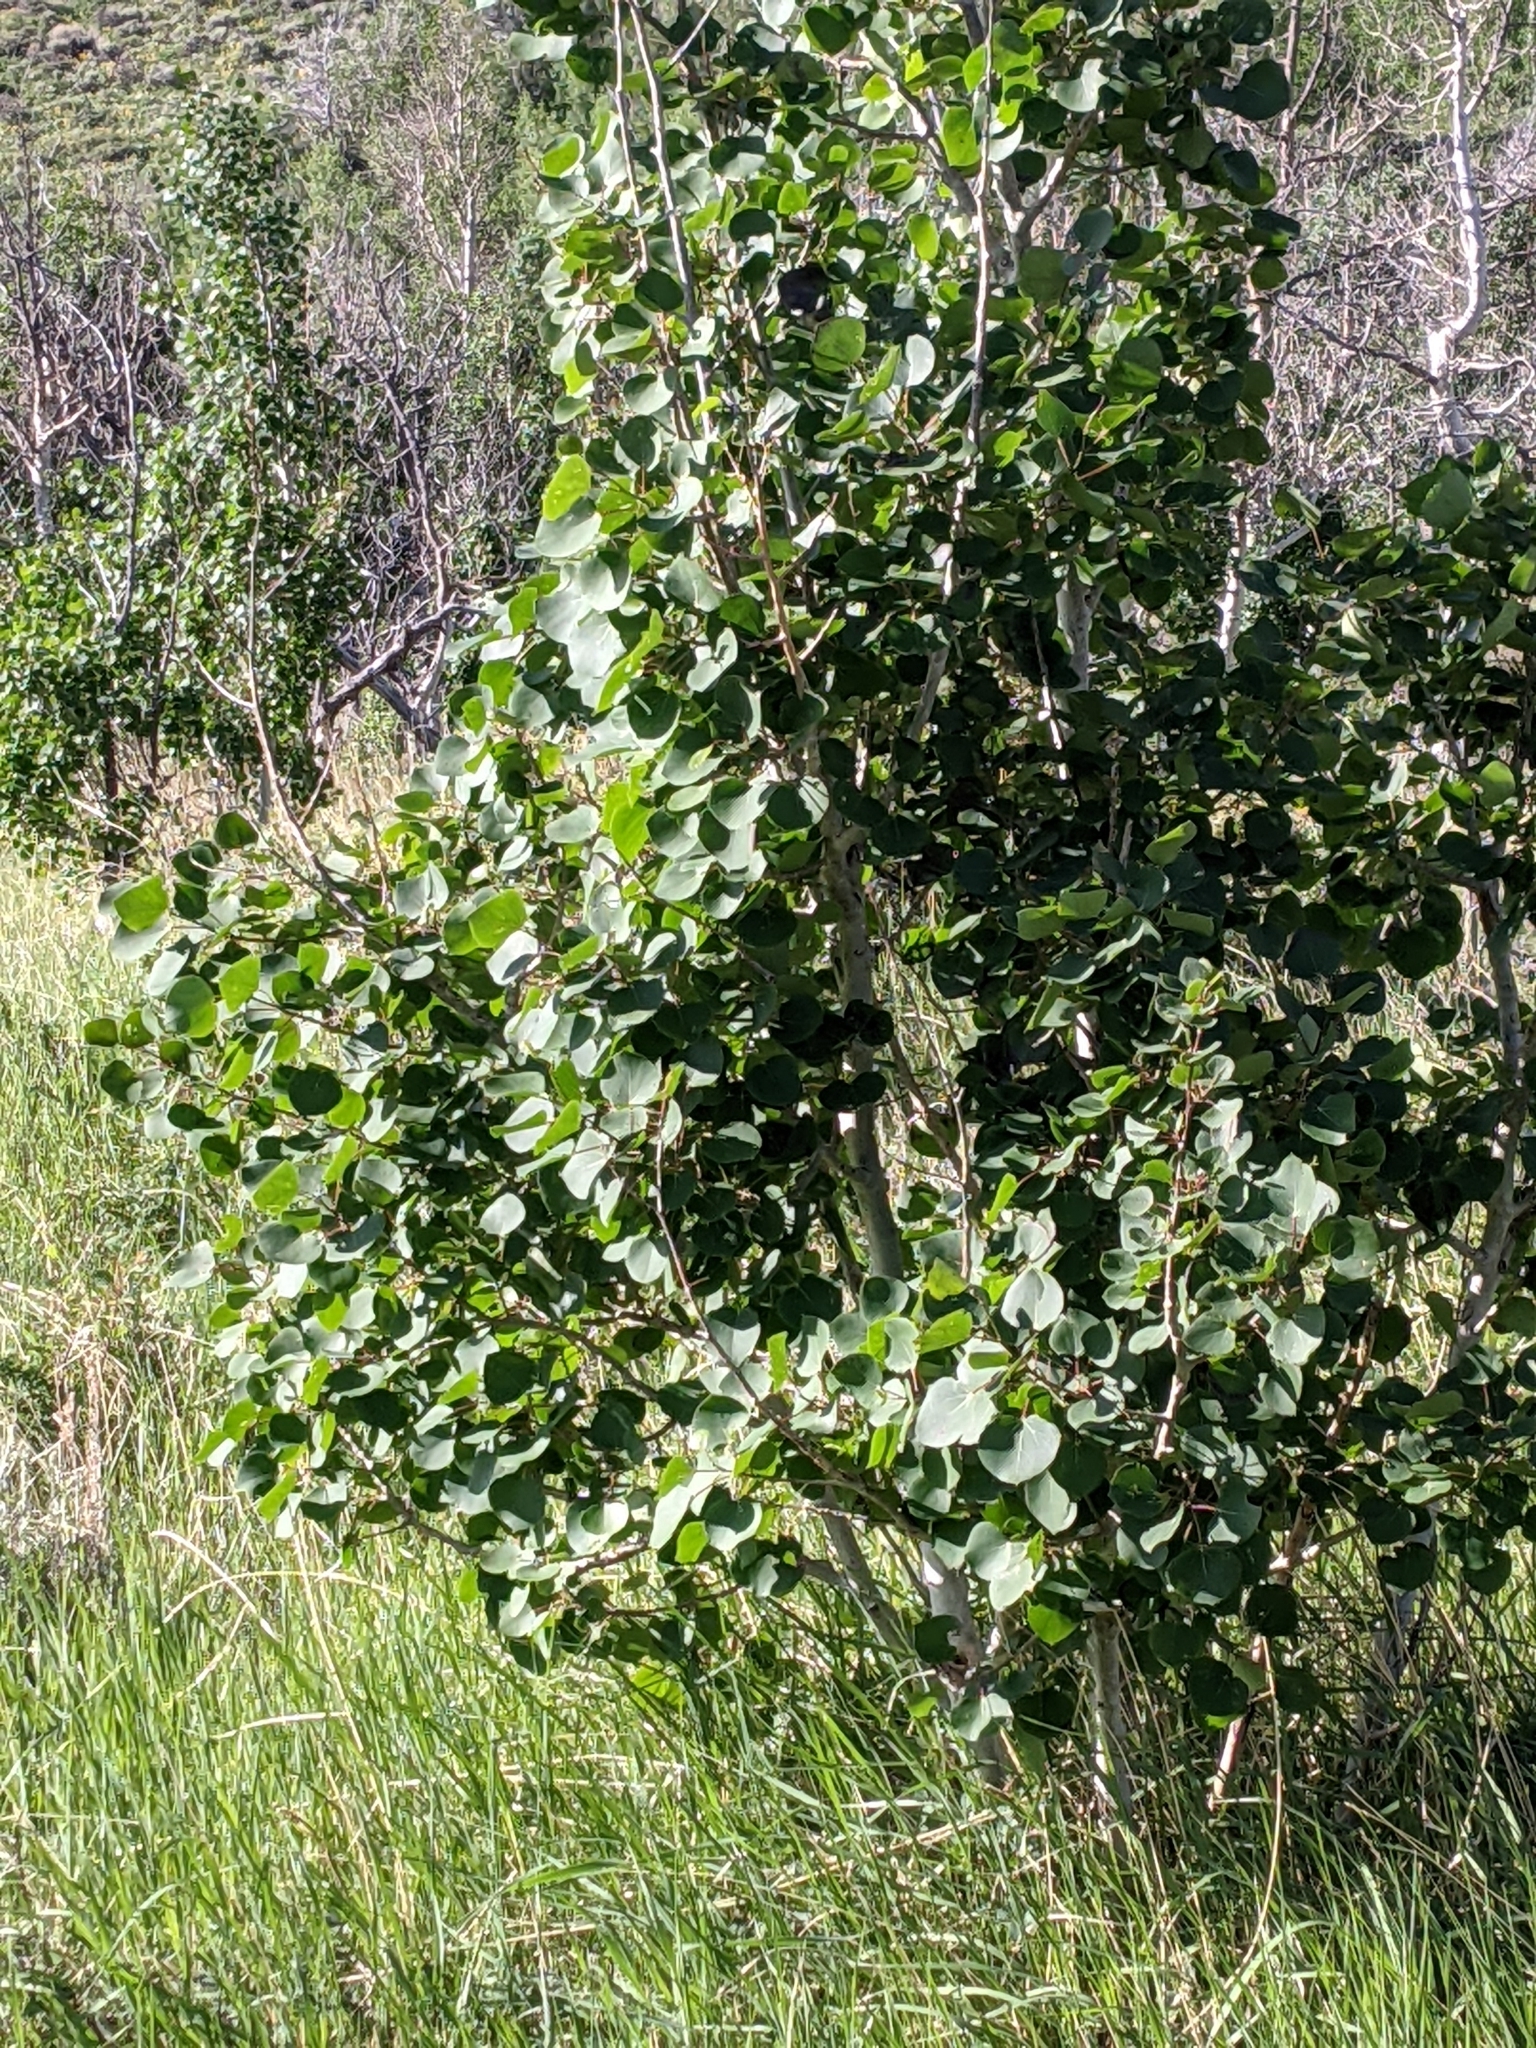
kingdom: Plantae
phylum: Tracheophyta
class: Magnoliopsida
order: Malpighiales
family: Salicaceae
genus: Populus
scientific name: Populus tremuloides
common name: Quaking aspen
